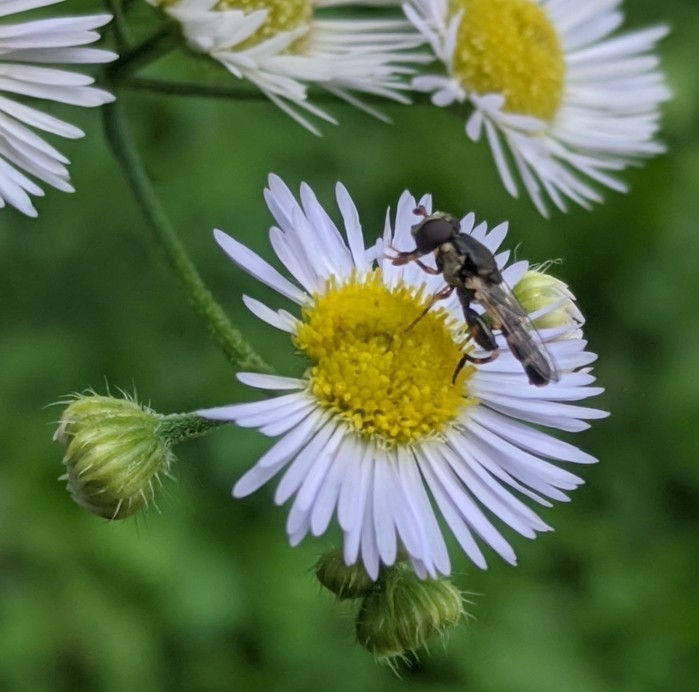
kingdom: Animalia
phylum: Arthropoda
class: Insecta
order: Diptera
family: Syrphidae
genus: Syritta
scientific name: Syritta pipiens
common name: Hover fly
